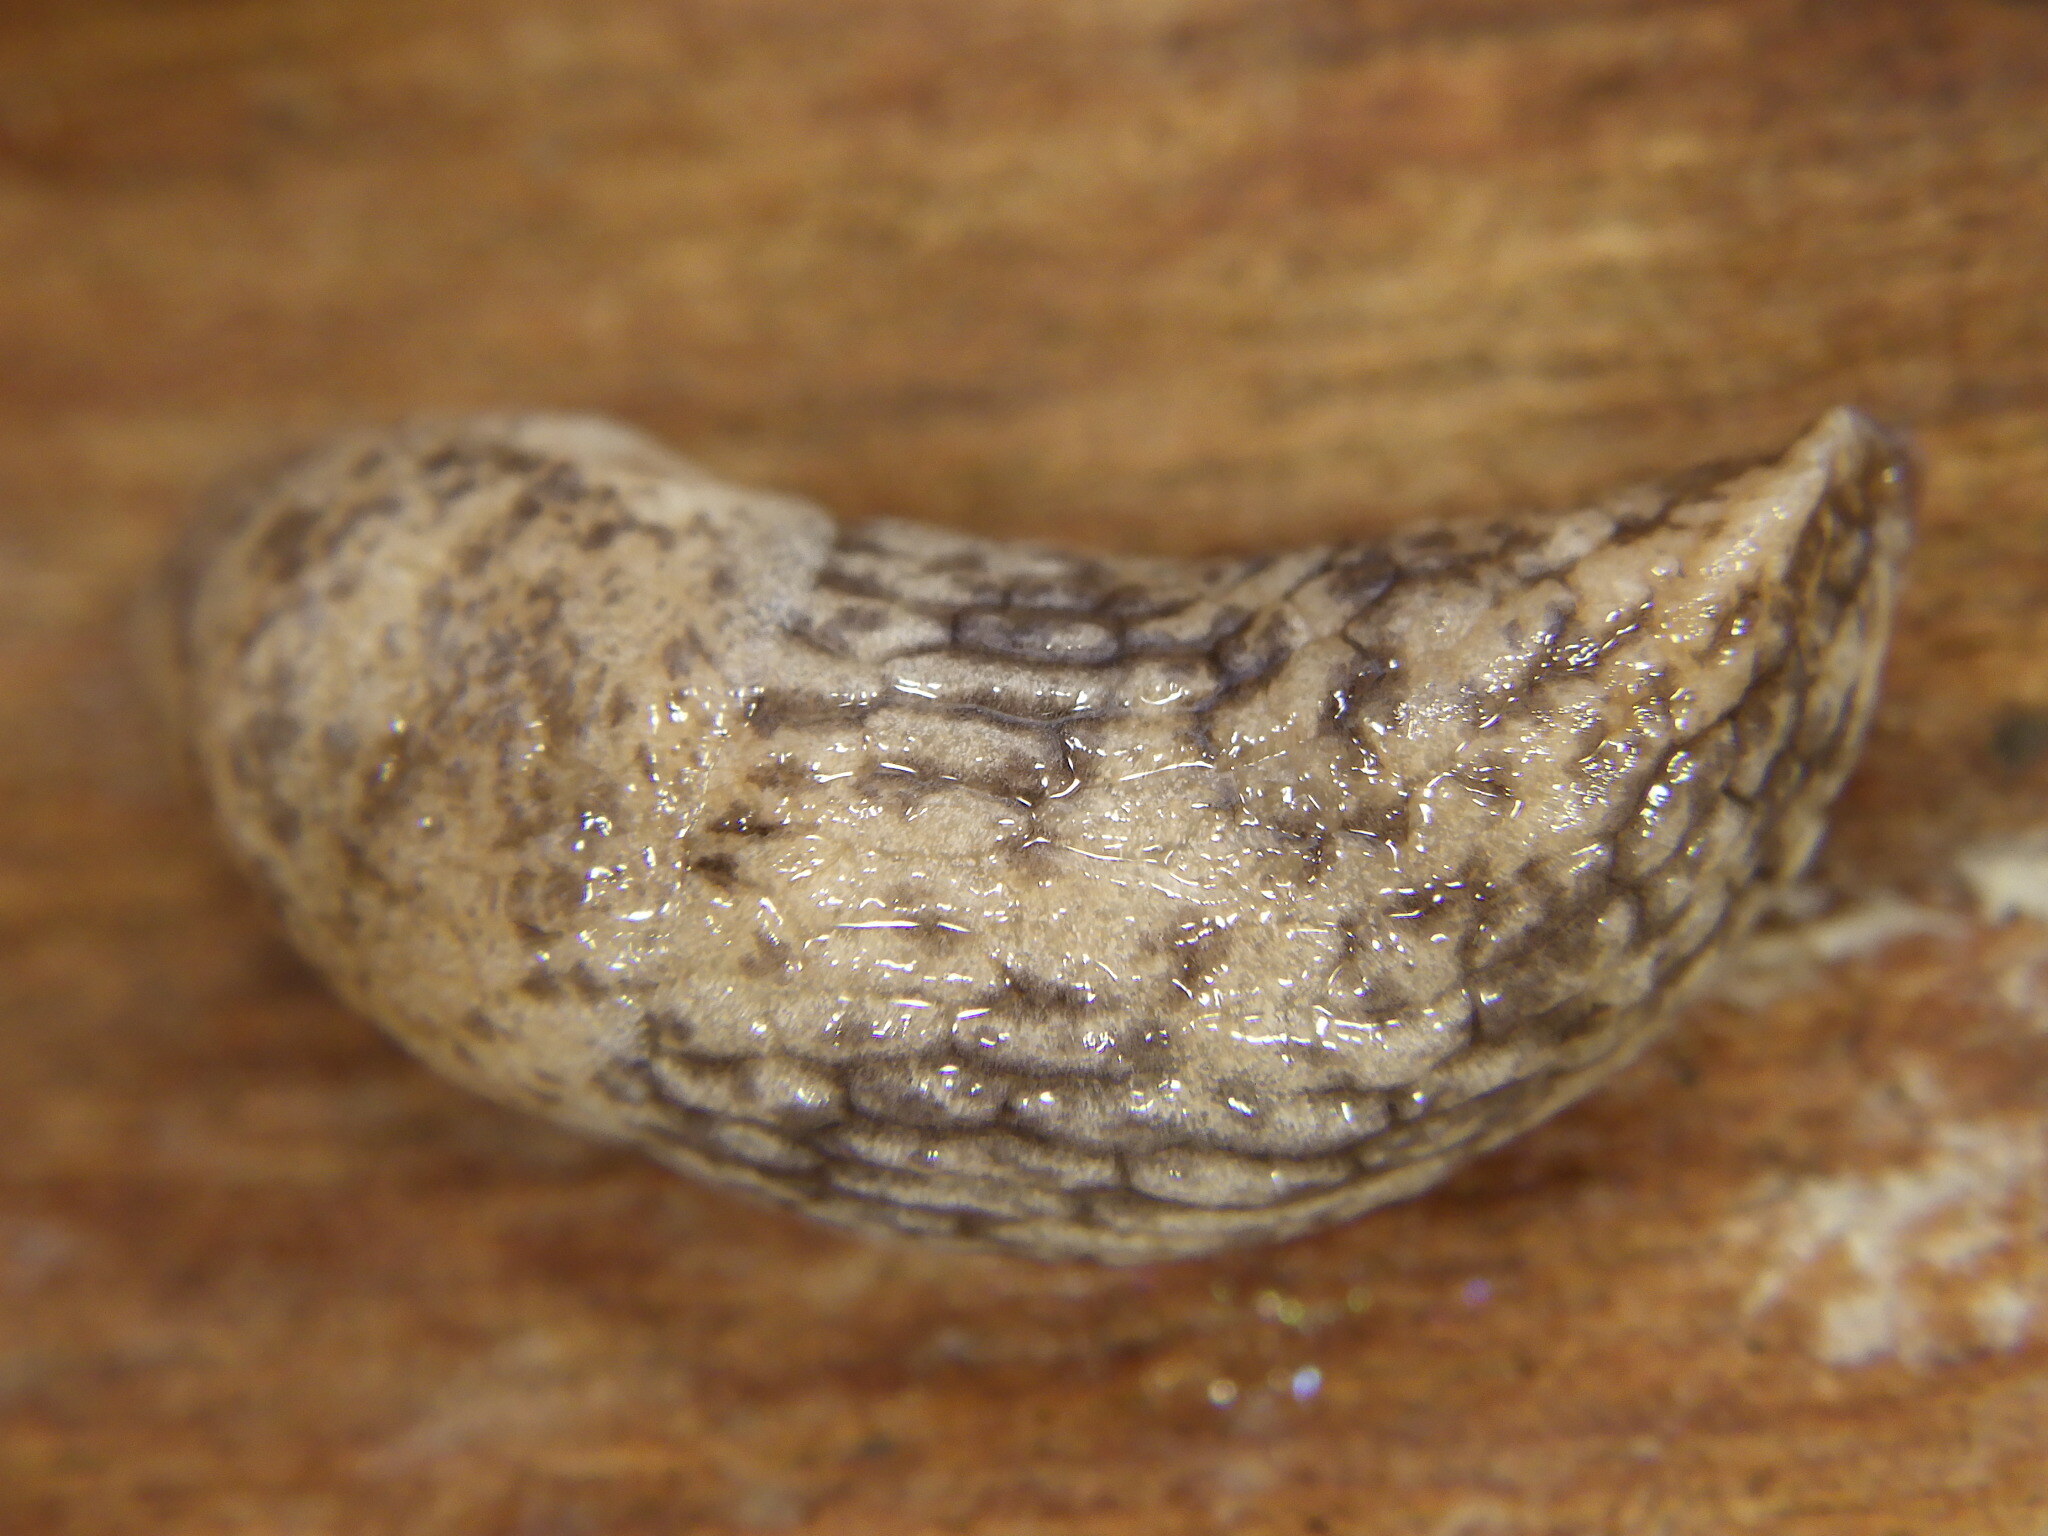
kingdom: Animalia
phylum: Mollusca
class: Gastropoda
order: Stylommatophora
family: Agriolimacidae
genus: Deroceras
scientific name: Deroceras reticulatum
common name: Gray field slug
